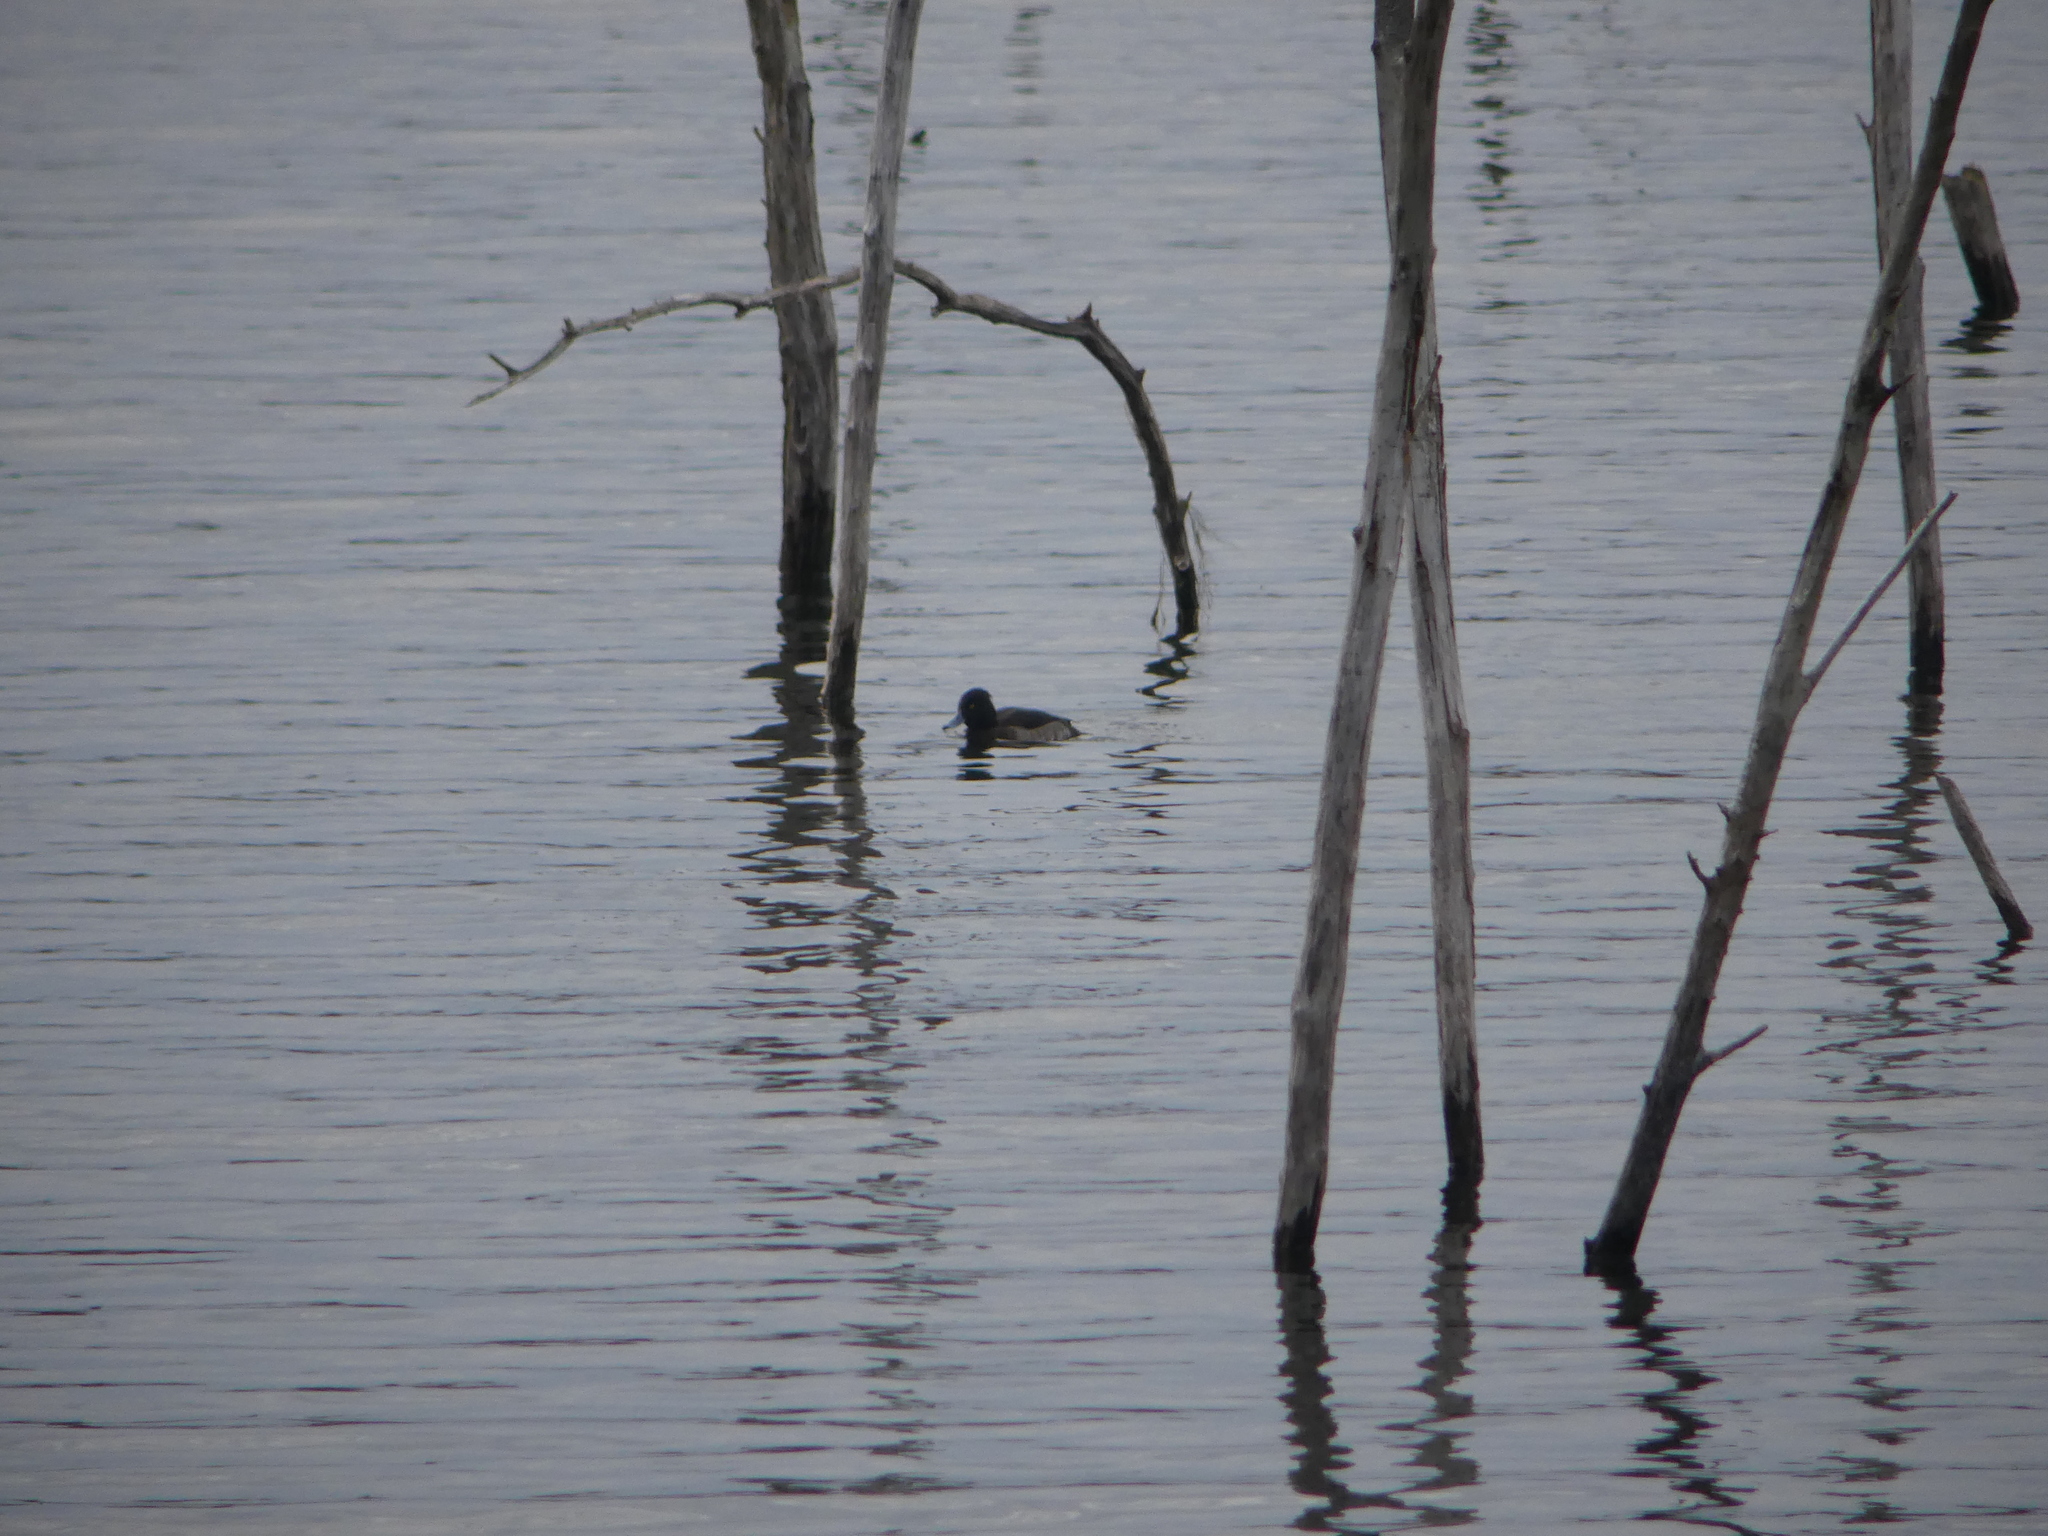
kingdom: Animalia
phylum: Chordata
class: Aves
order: Anseriformes
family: Anatidae
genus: Aythya
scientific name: Aythya fuligula
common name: Tufted duck
